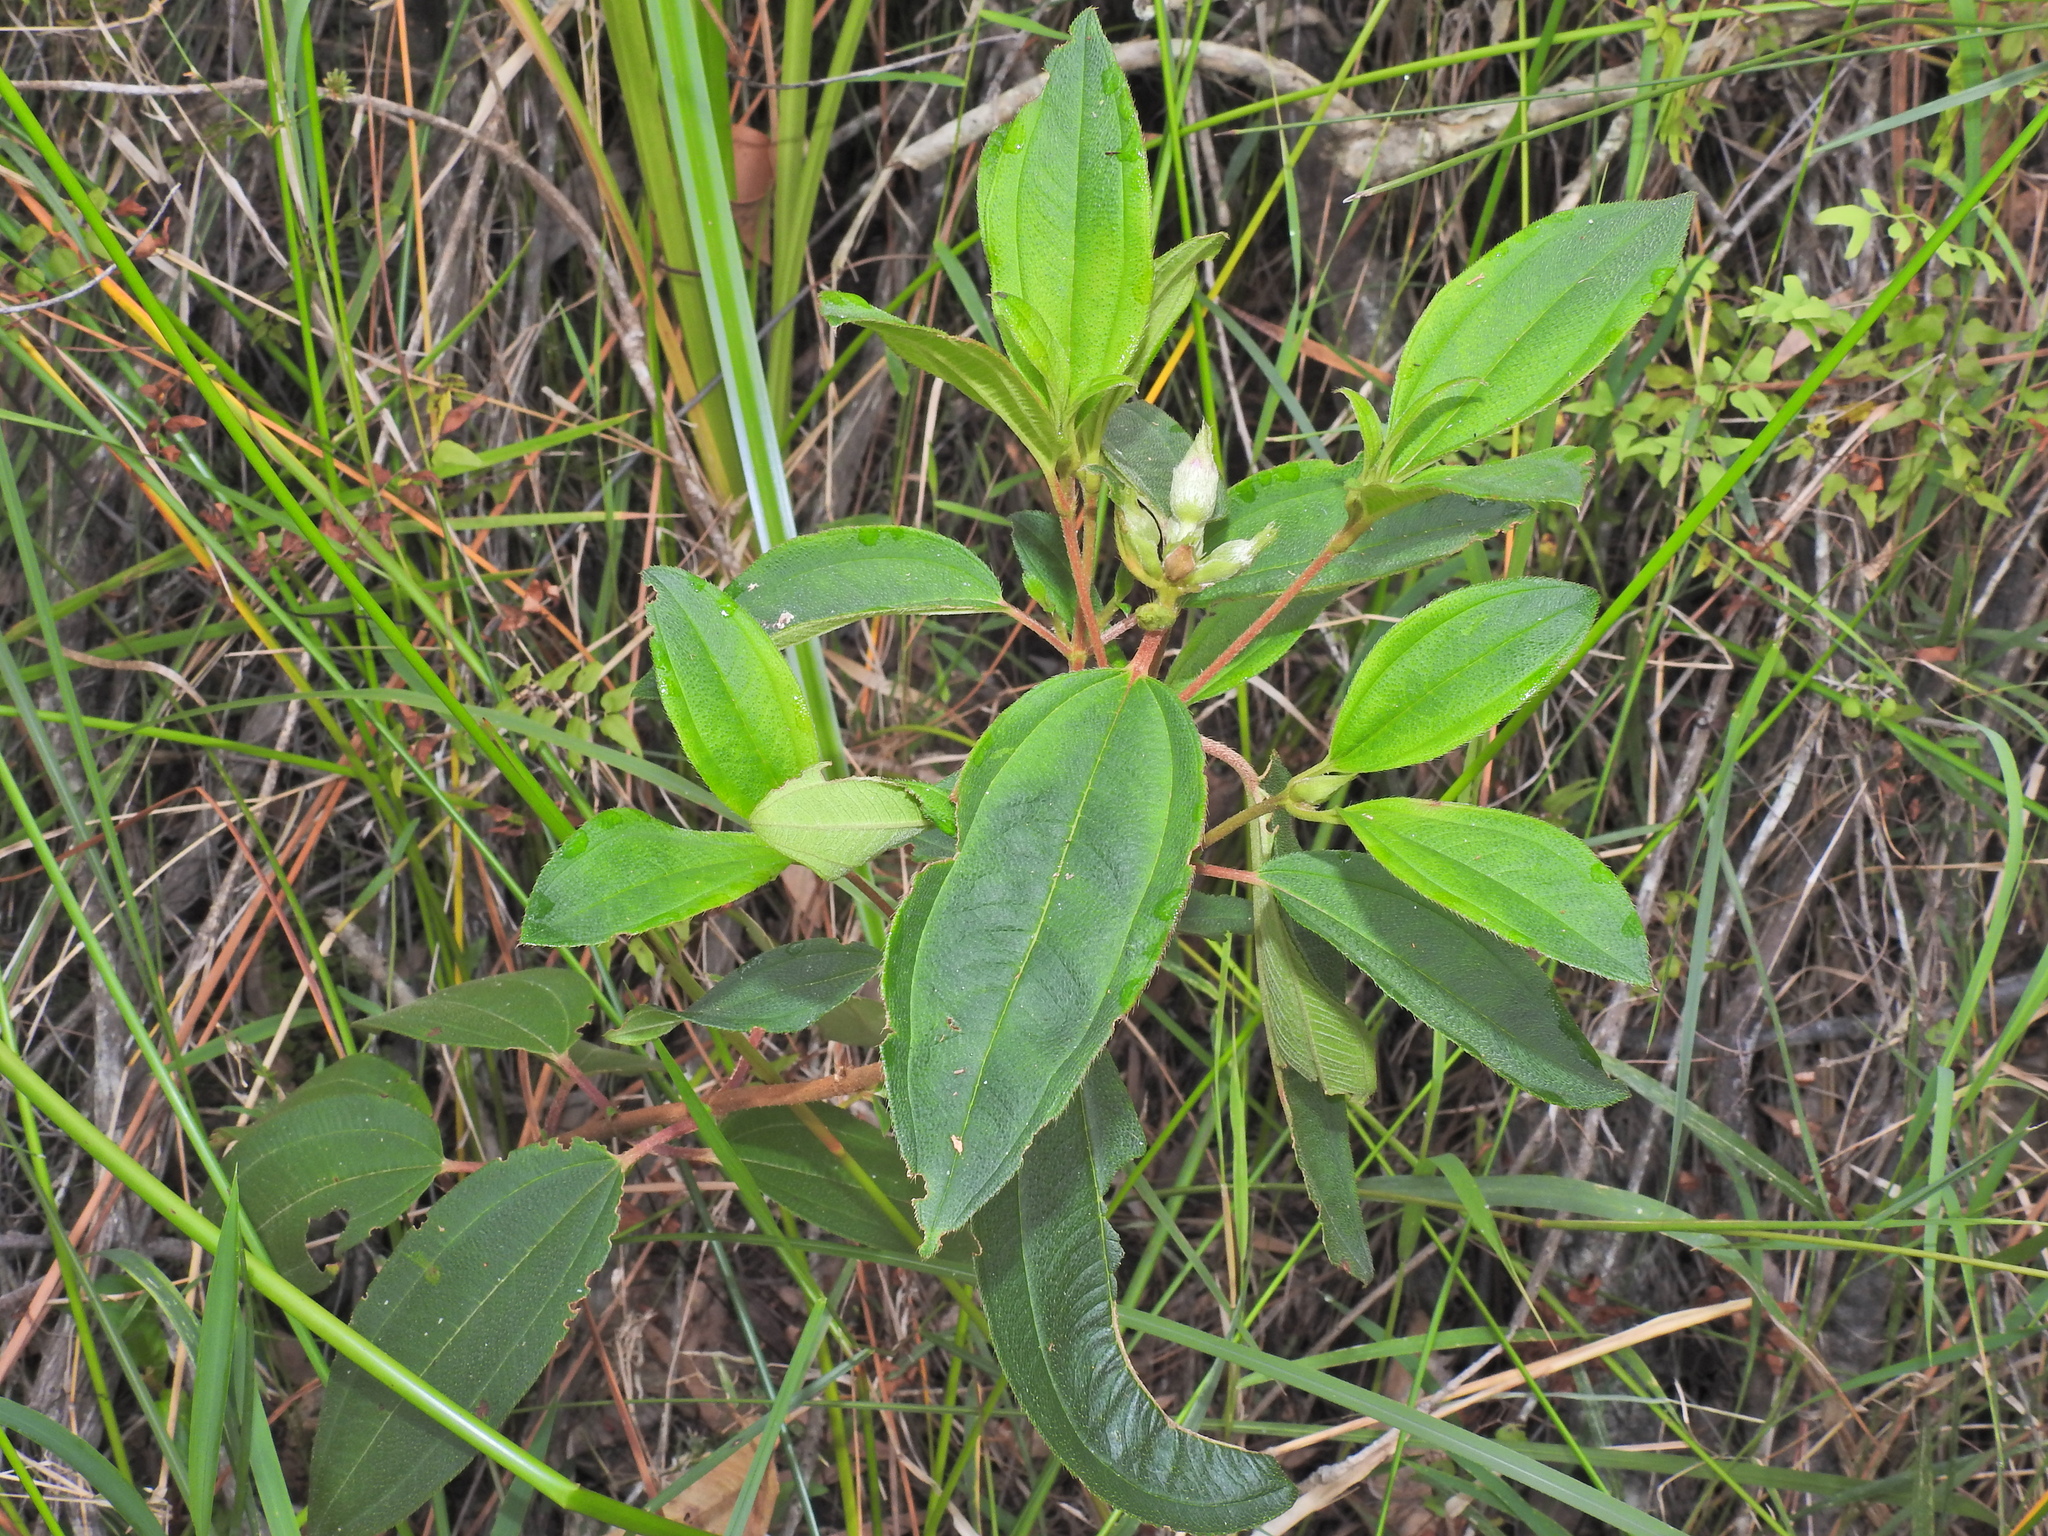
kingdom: Plantae
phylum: Tracheophyta
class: Magnoliopsida
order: Myrtales
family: Melastomataceae
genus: Melastoma
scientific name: Melastoma malabathricum
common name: Indian-rhododendron
